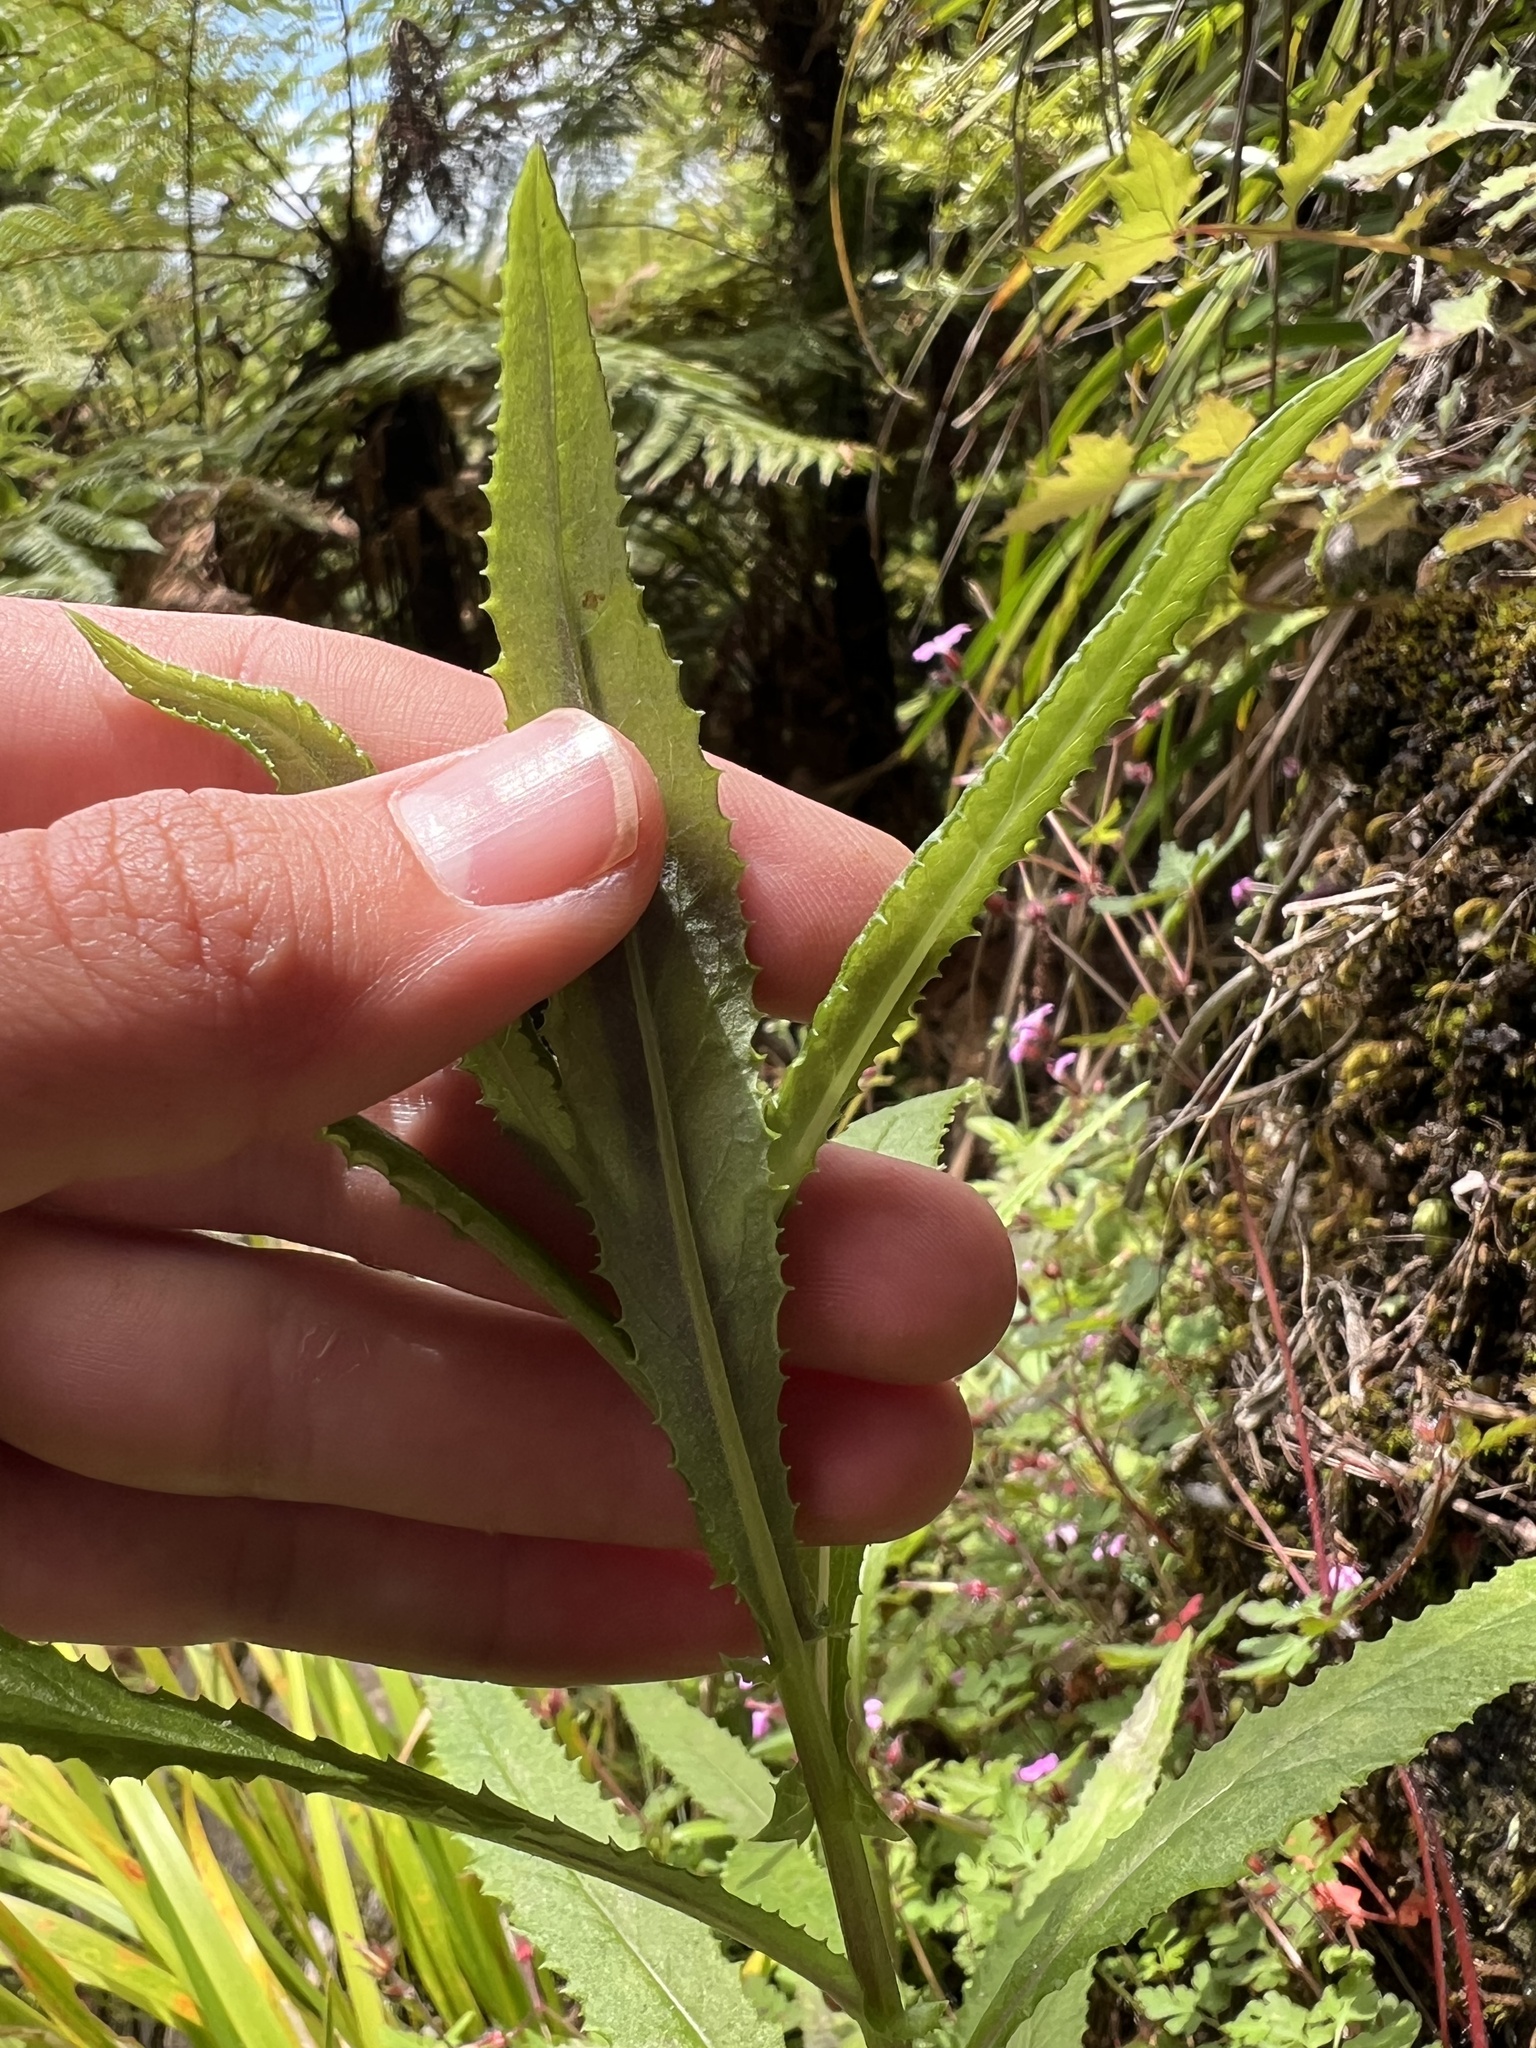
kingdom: Plantae
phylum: Tracheophyta
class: Magnoliopsida
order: Asterales
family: Asteraceae
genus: Senecio
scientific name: Senecio minimus
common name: Toothed fireweed
